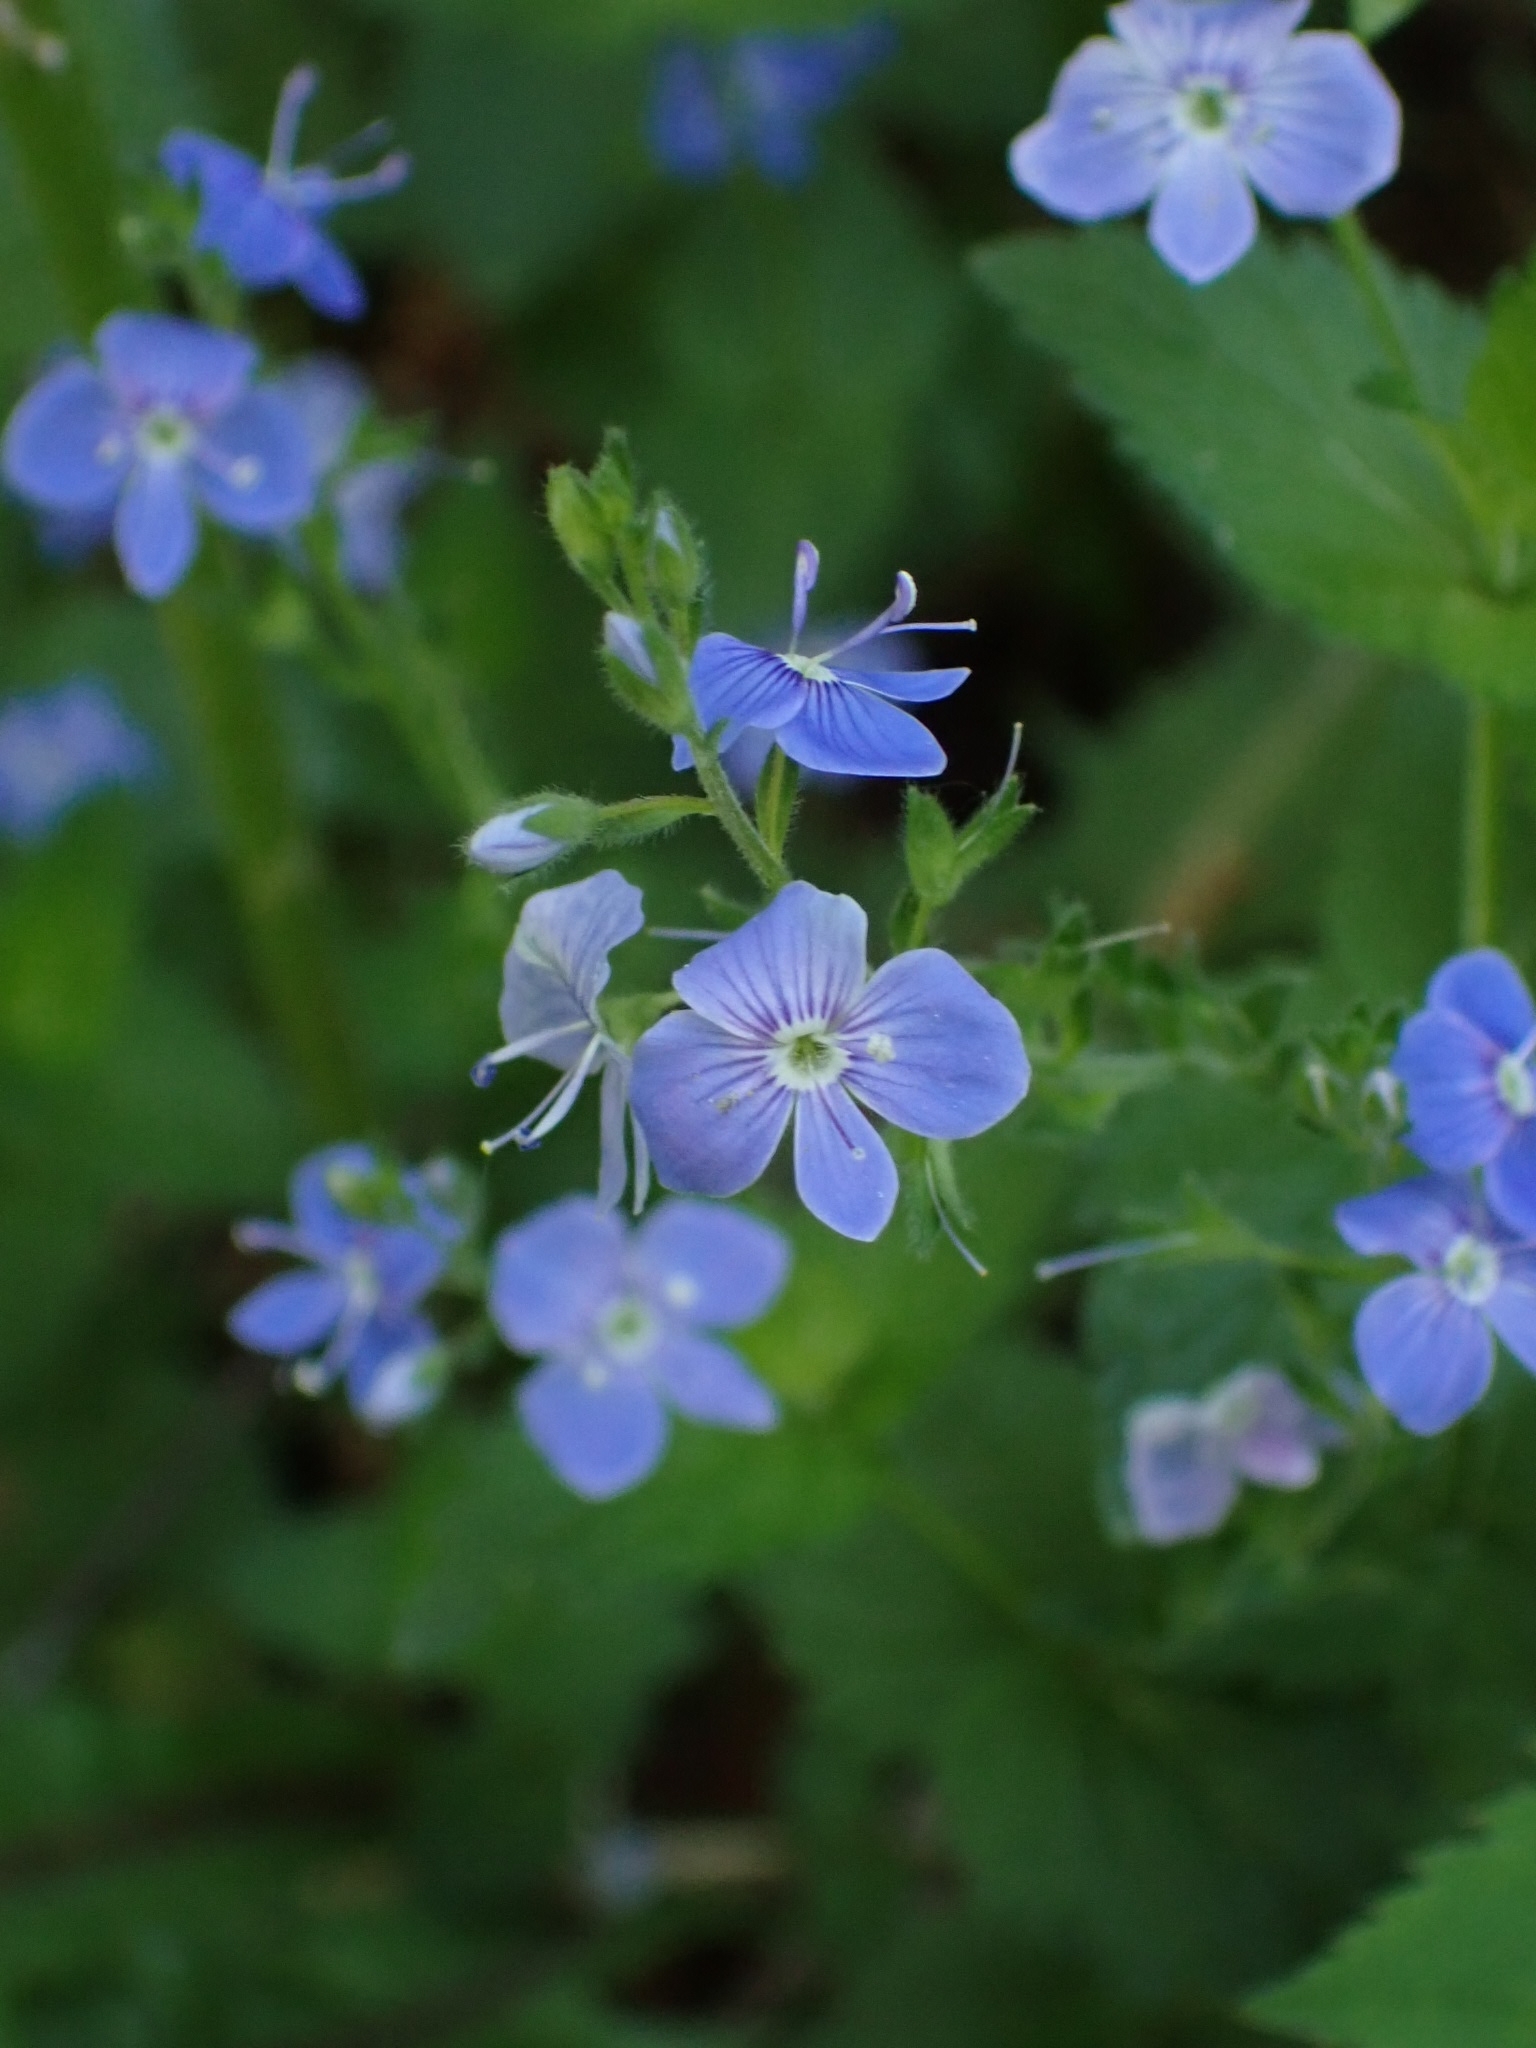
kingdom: Plantae
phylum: Tracheophyta
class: Magnoliopsida
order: Lamiales
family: Plantaginaceae
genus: Veronica
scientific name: Veronica chamaedrys
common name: Germander speedwell
